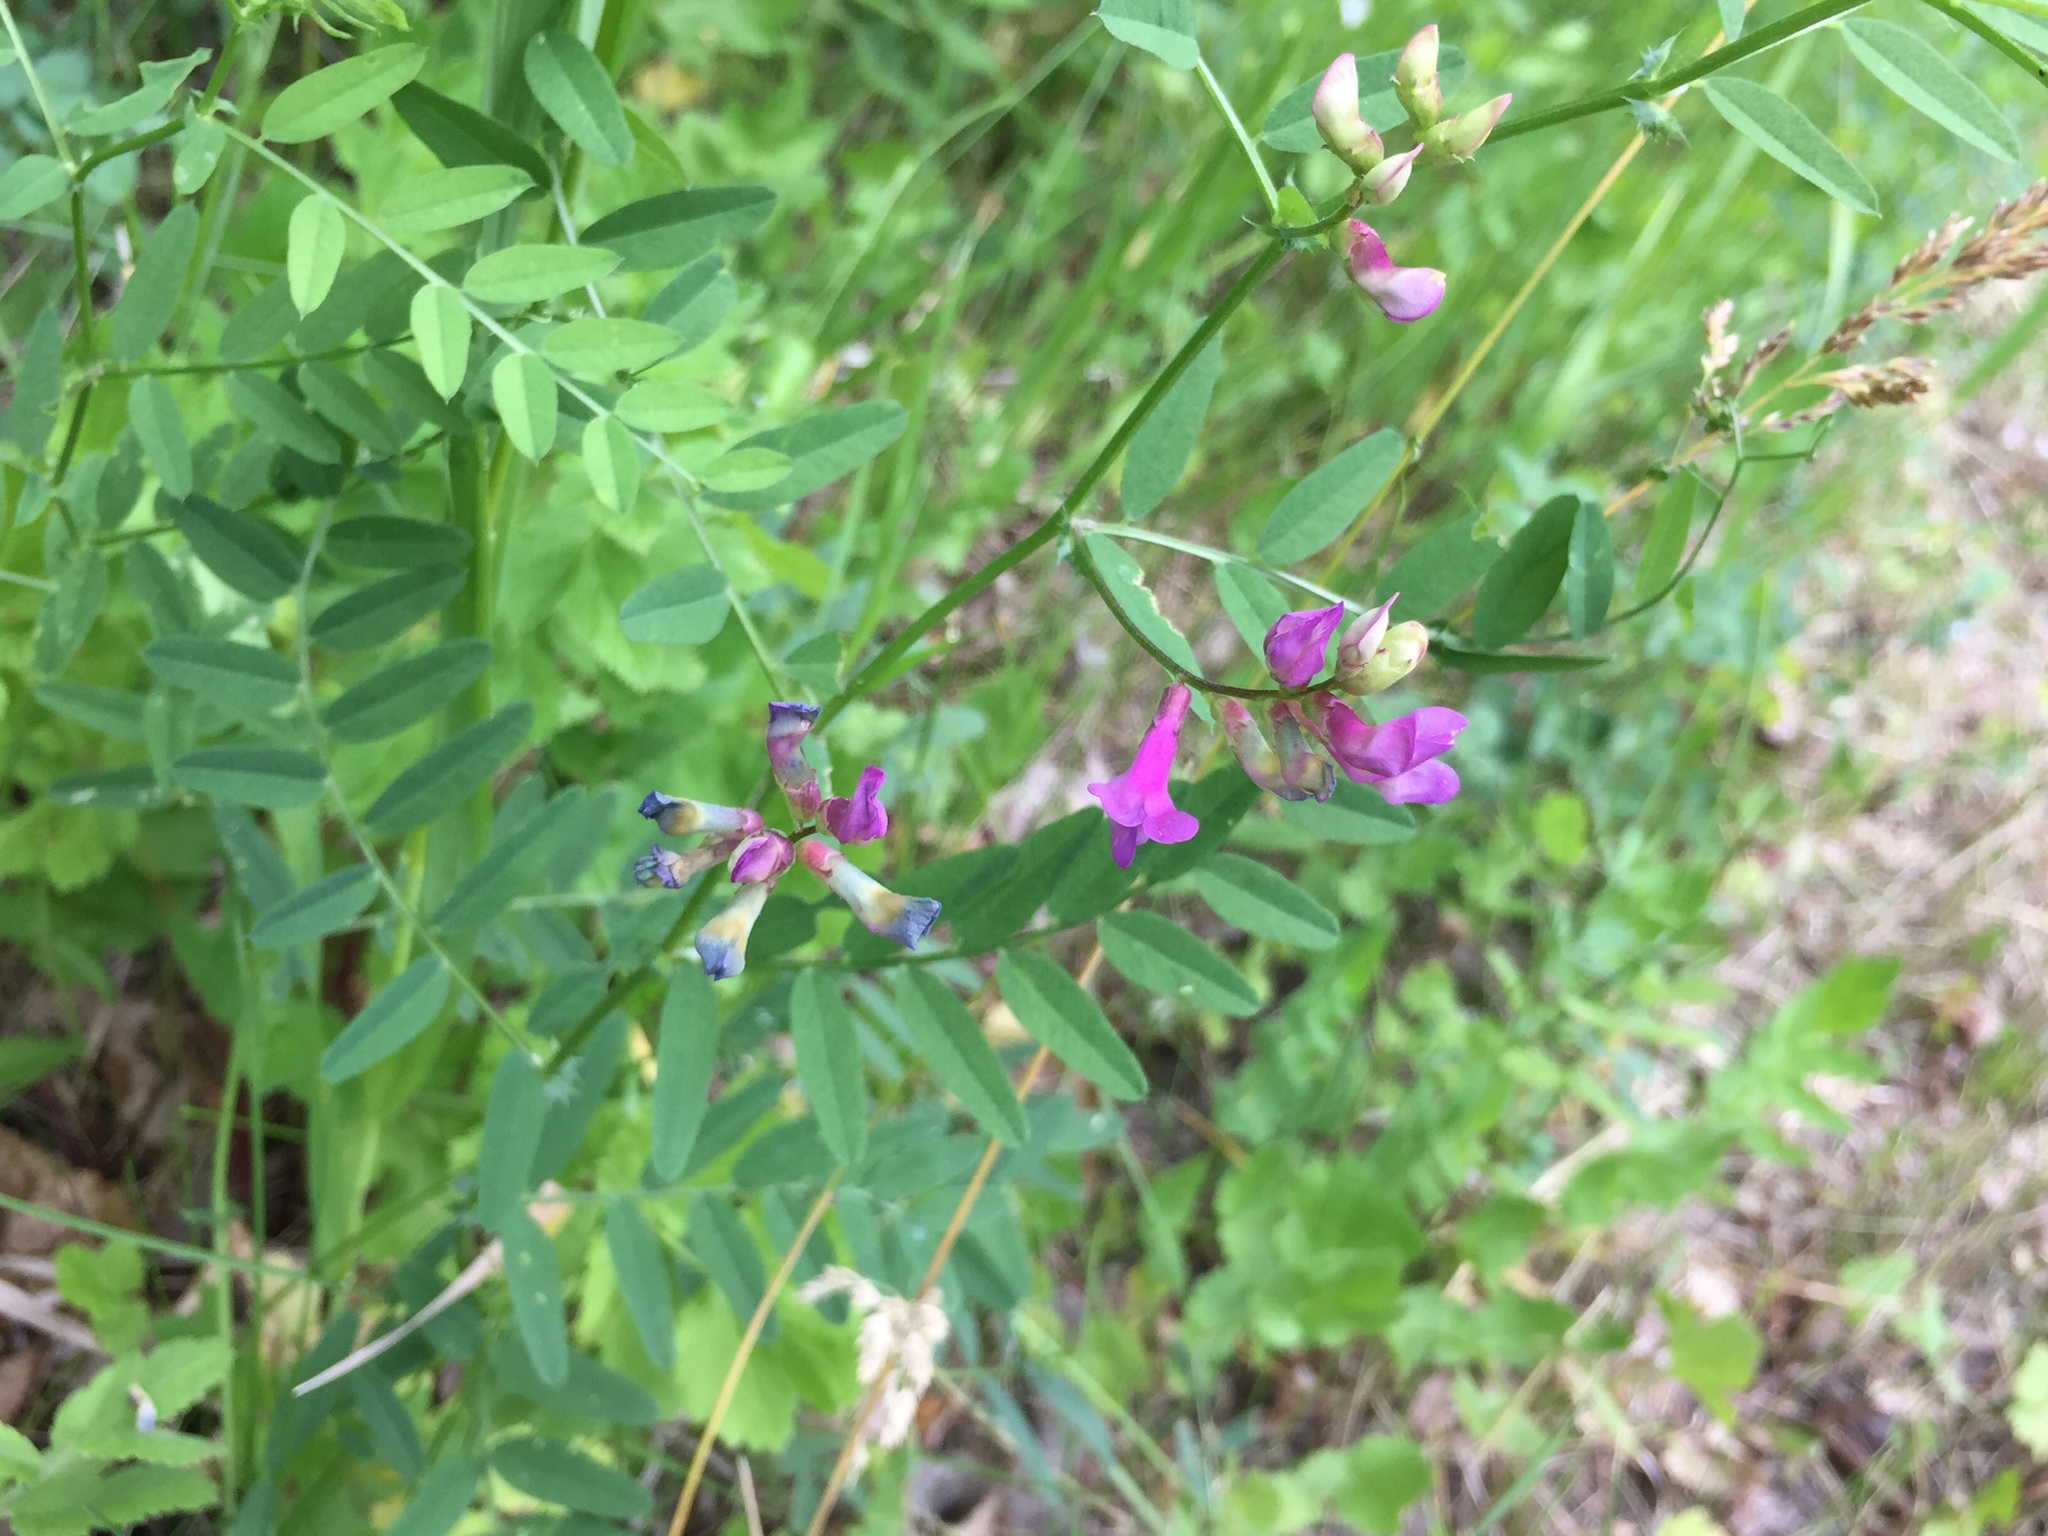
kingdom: Plantae
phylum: Tracheophyta
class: Magnoliopsida
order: Fabales
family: Fabaceae
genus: Vicia
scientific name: Vicia americana
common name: American vetch
